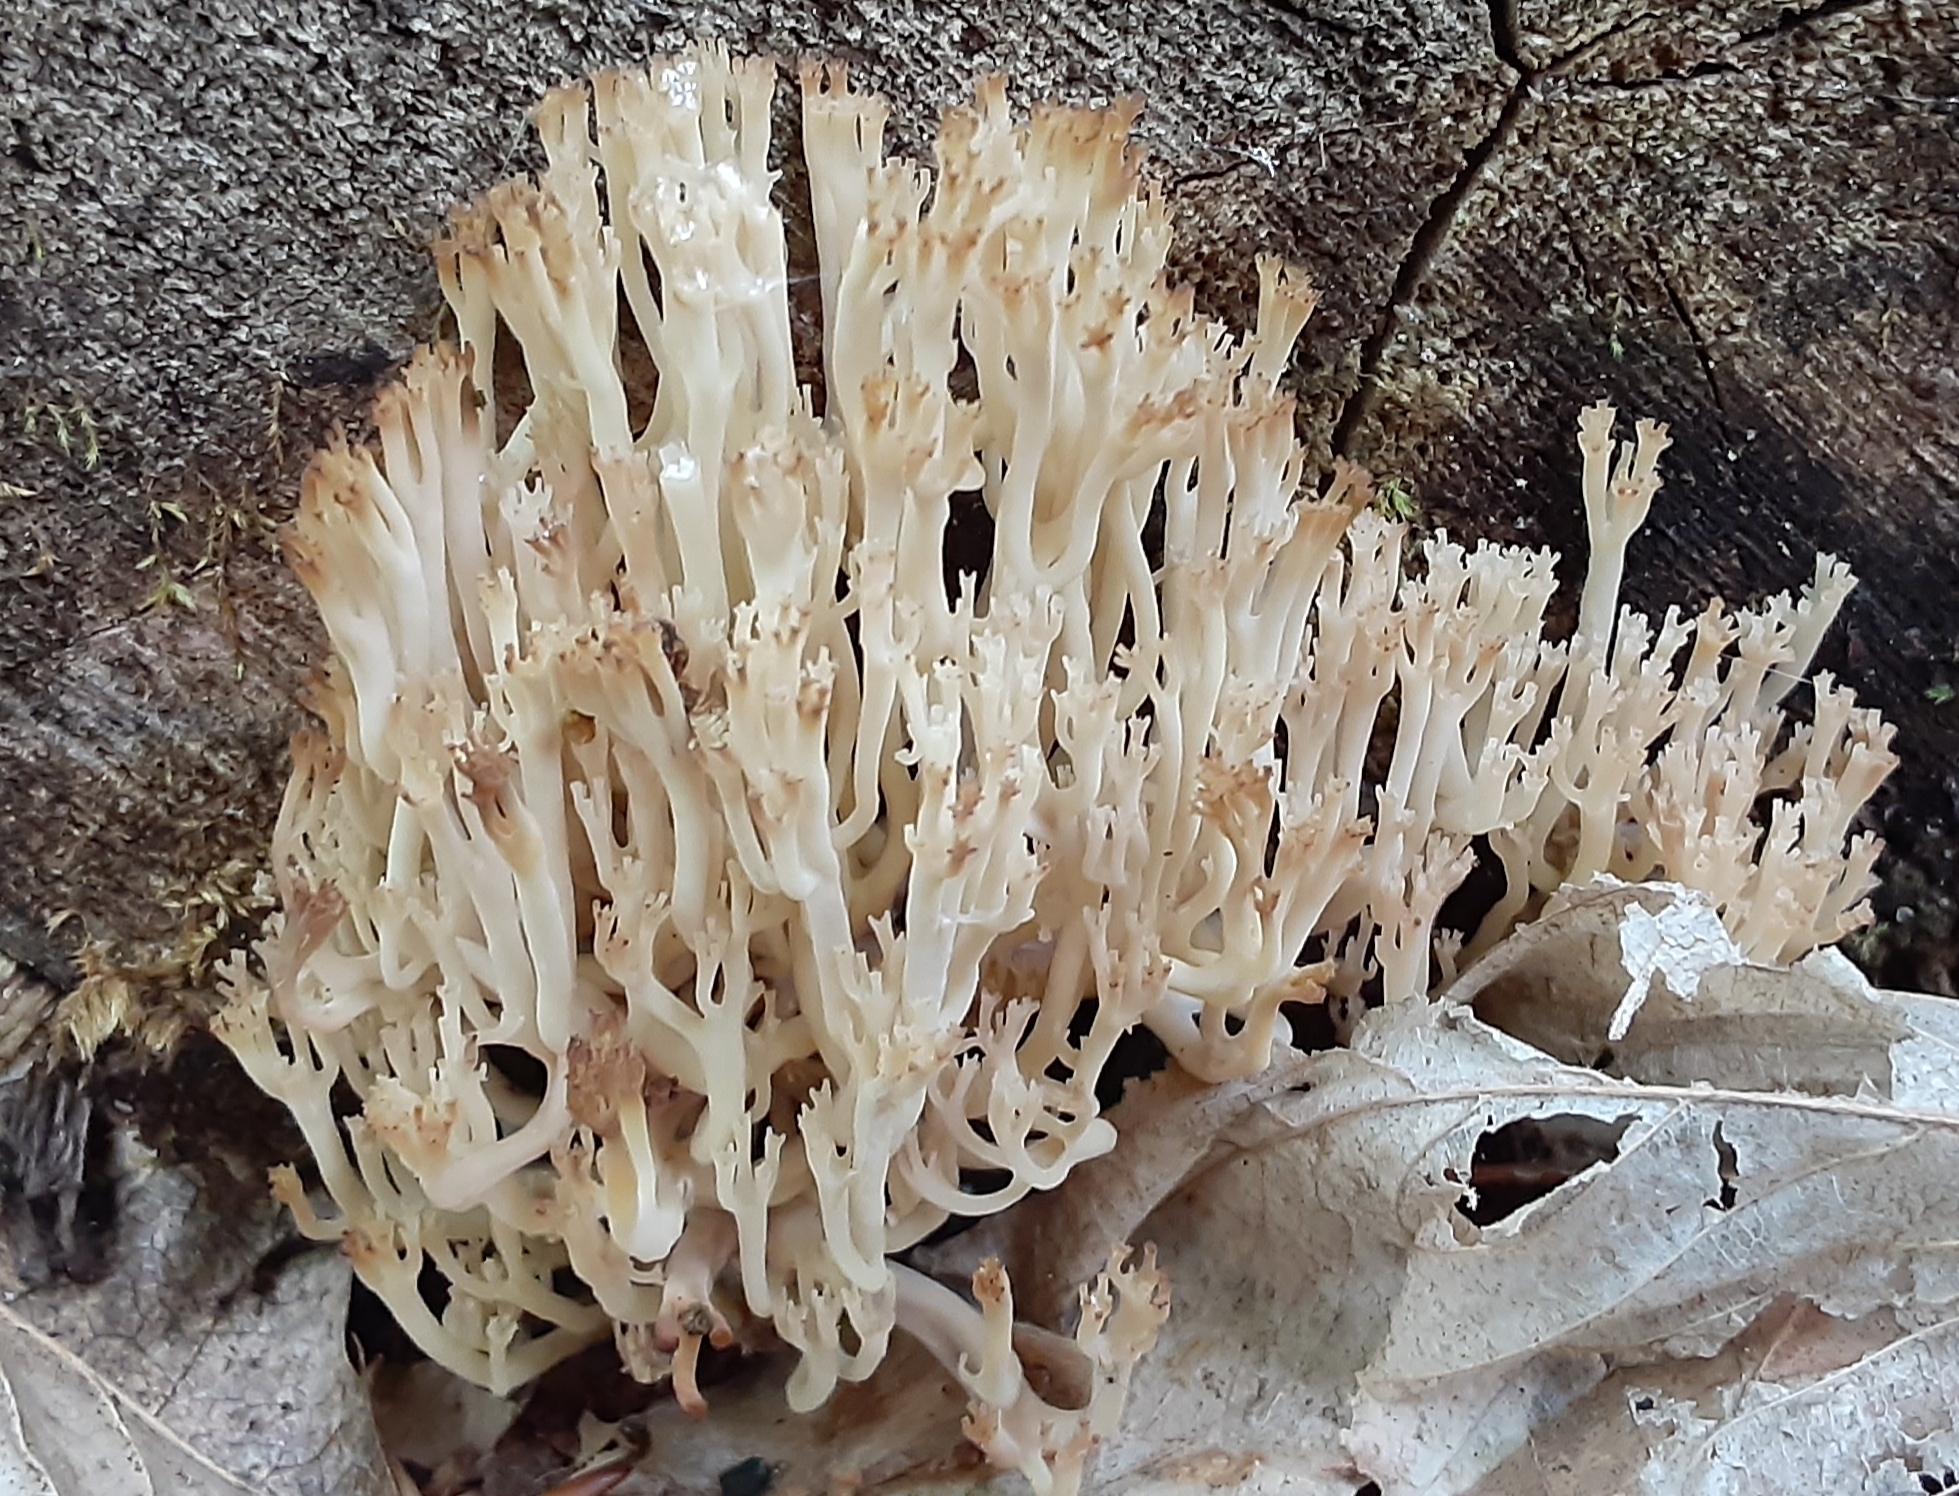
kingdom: Fungi
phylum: Basidiomycota
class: Agaricomycetes
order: Russulales
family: Auriscalpiaceae
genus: Artomyces
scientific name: Artomyces pyxidatus
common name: Crown-tipped coral fungus
